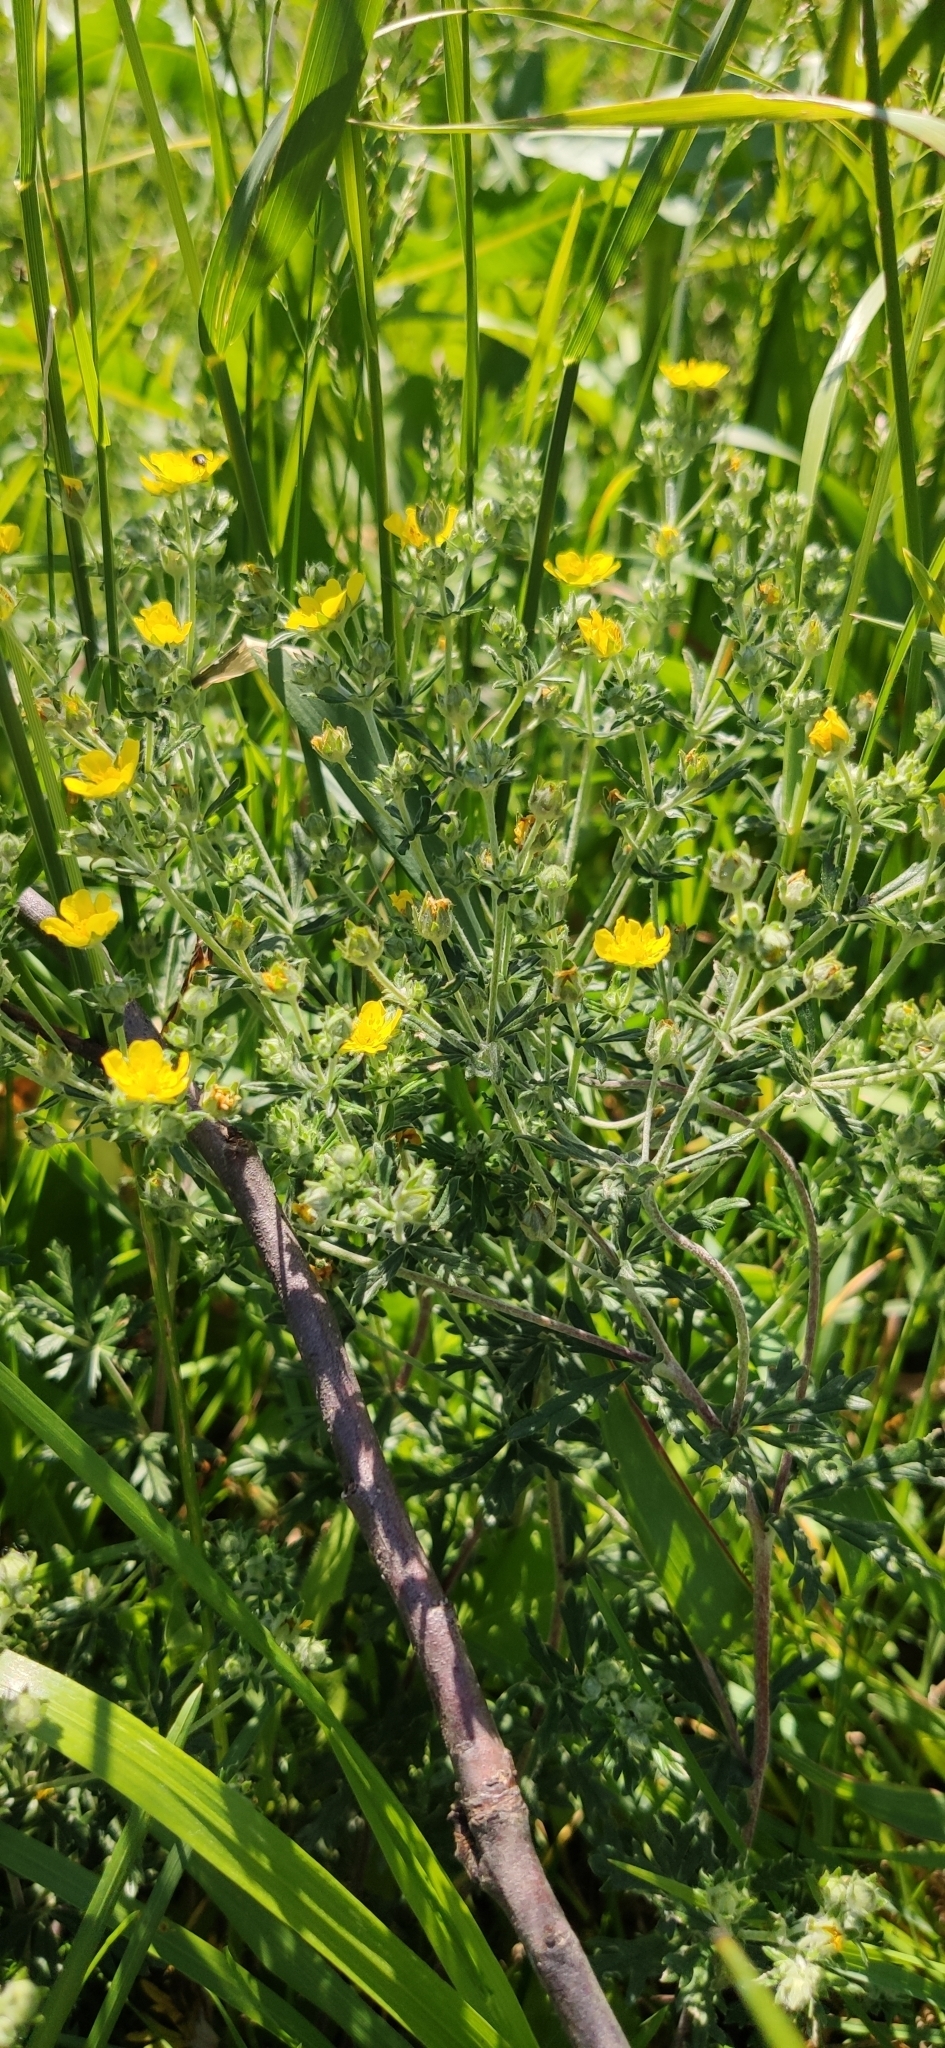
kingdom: Plantae
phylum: Tracheophyta
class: Magnoliopsida
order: Rosales
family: Rosaceae
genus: Potentilla
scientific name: Potentilla argentea
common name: Hoary cinquefoil
